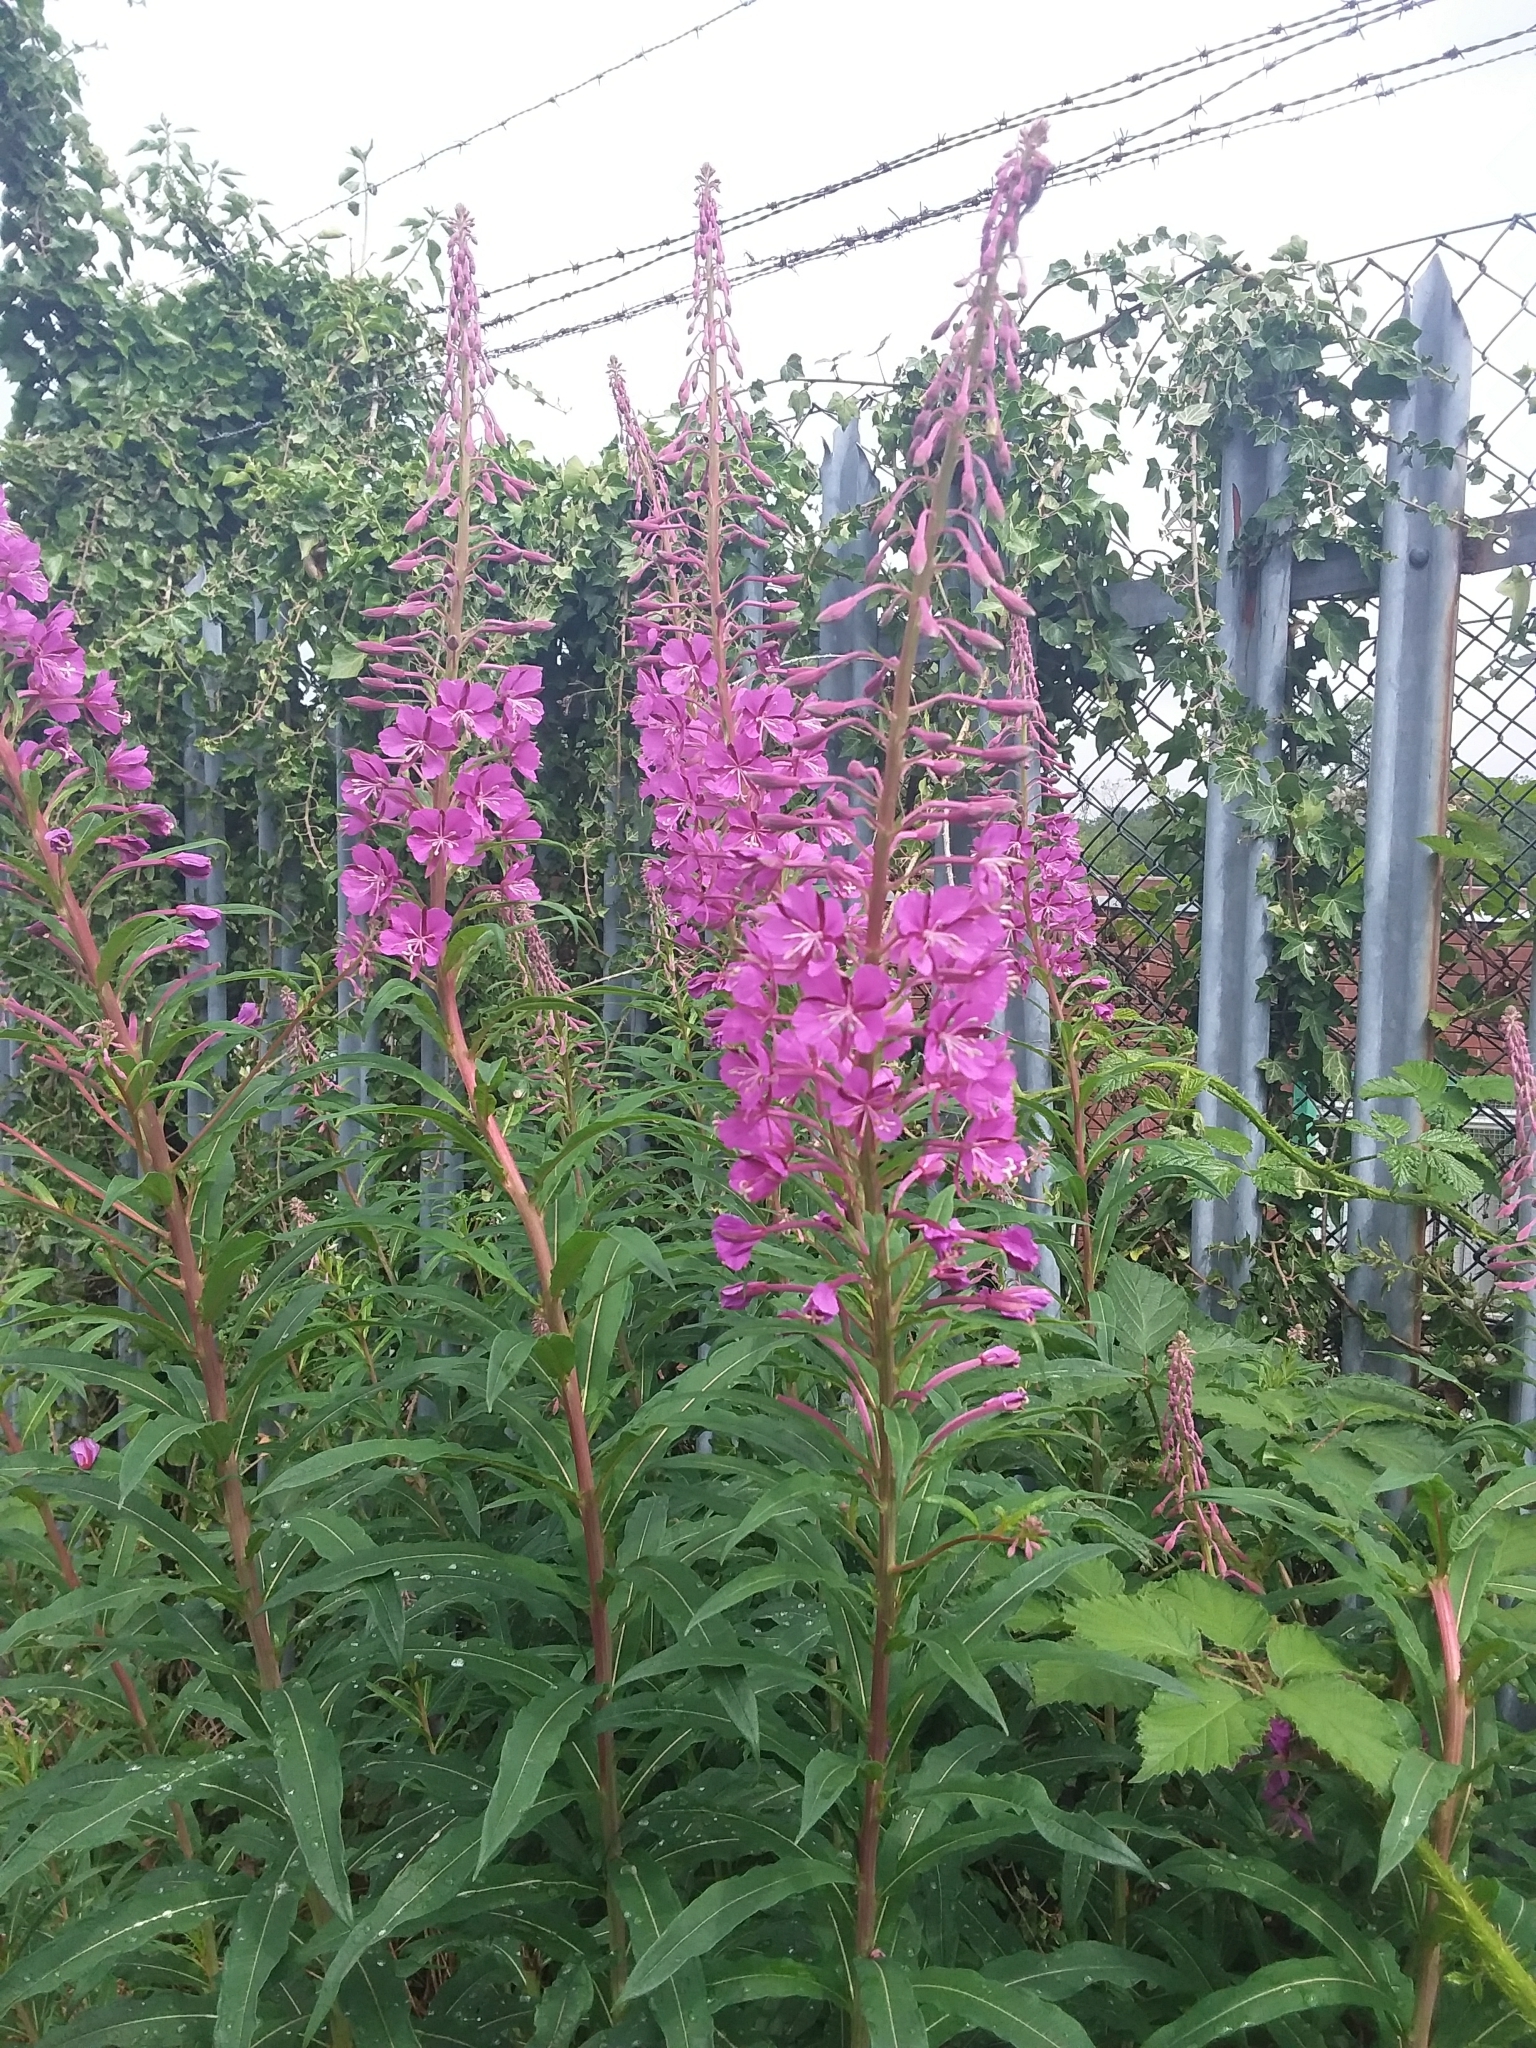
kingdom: Plantae
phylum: Tracheophyta
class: Magnoliopsida
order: Myrtales
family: Onagraceae
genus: Chamaenerion
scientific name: Chamaenerion angustifolium
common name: Fireweed
